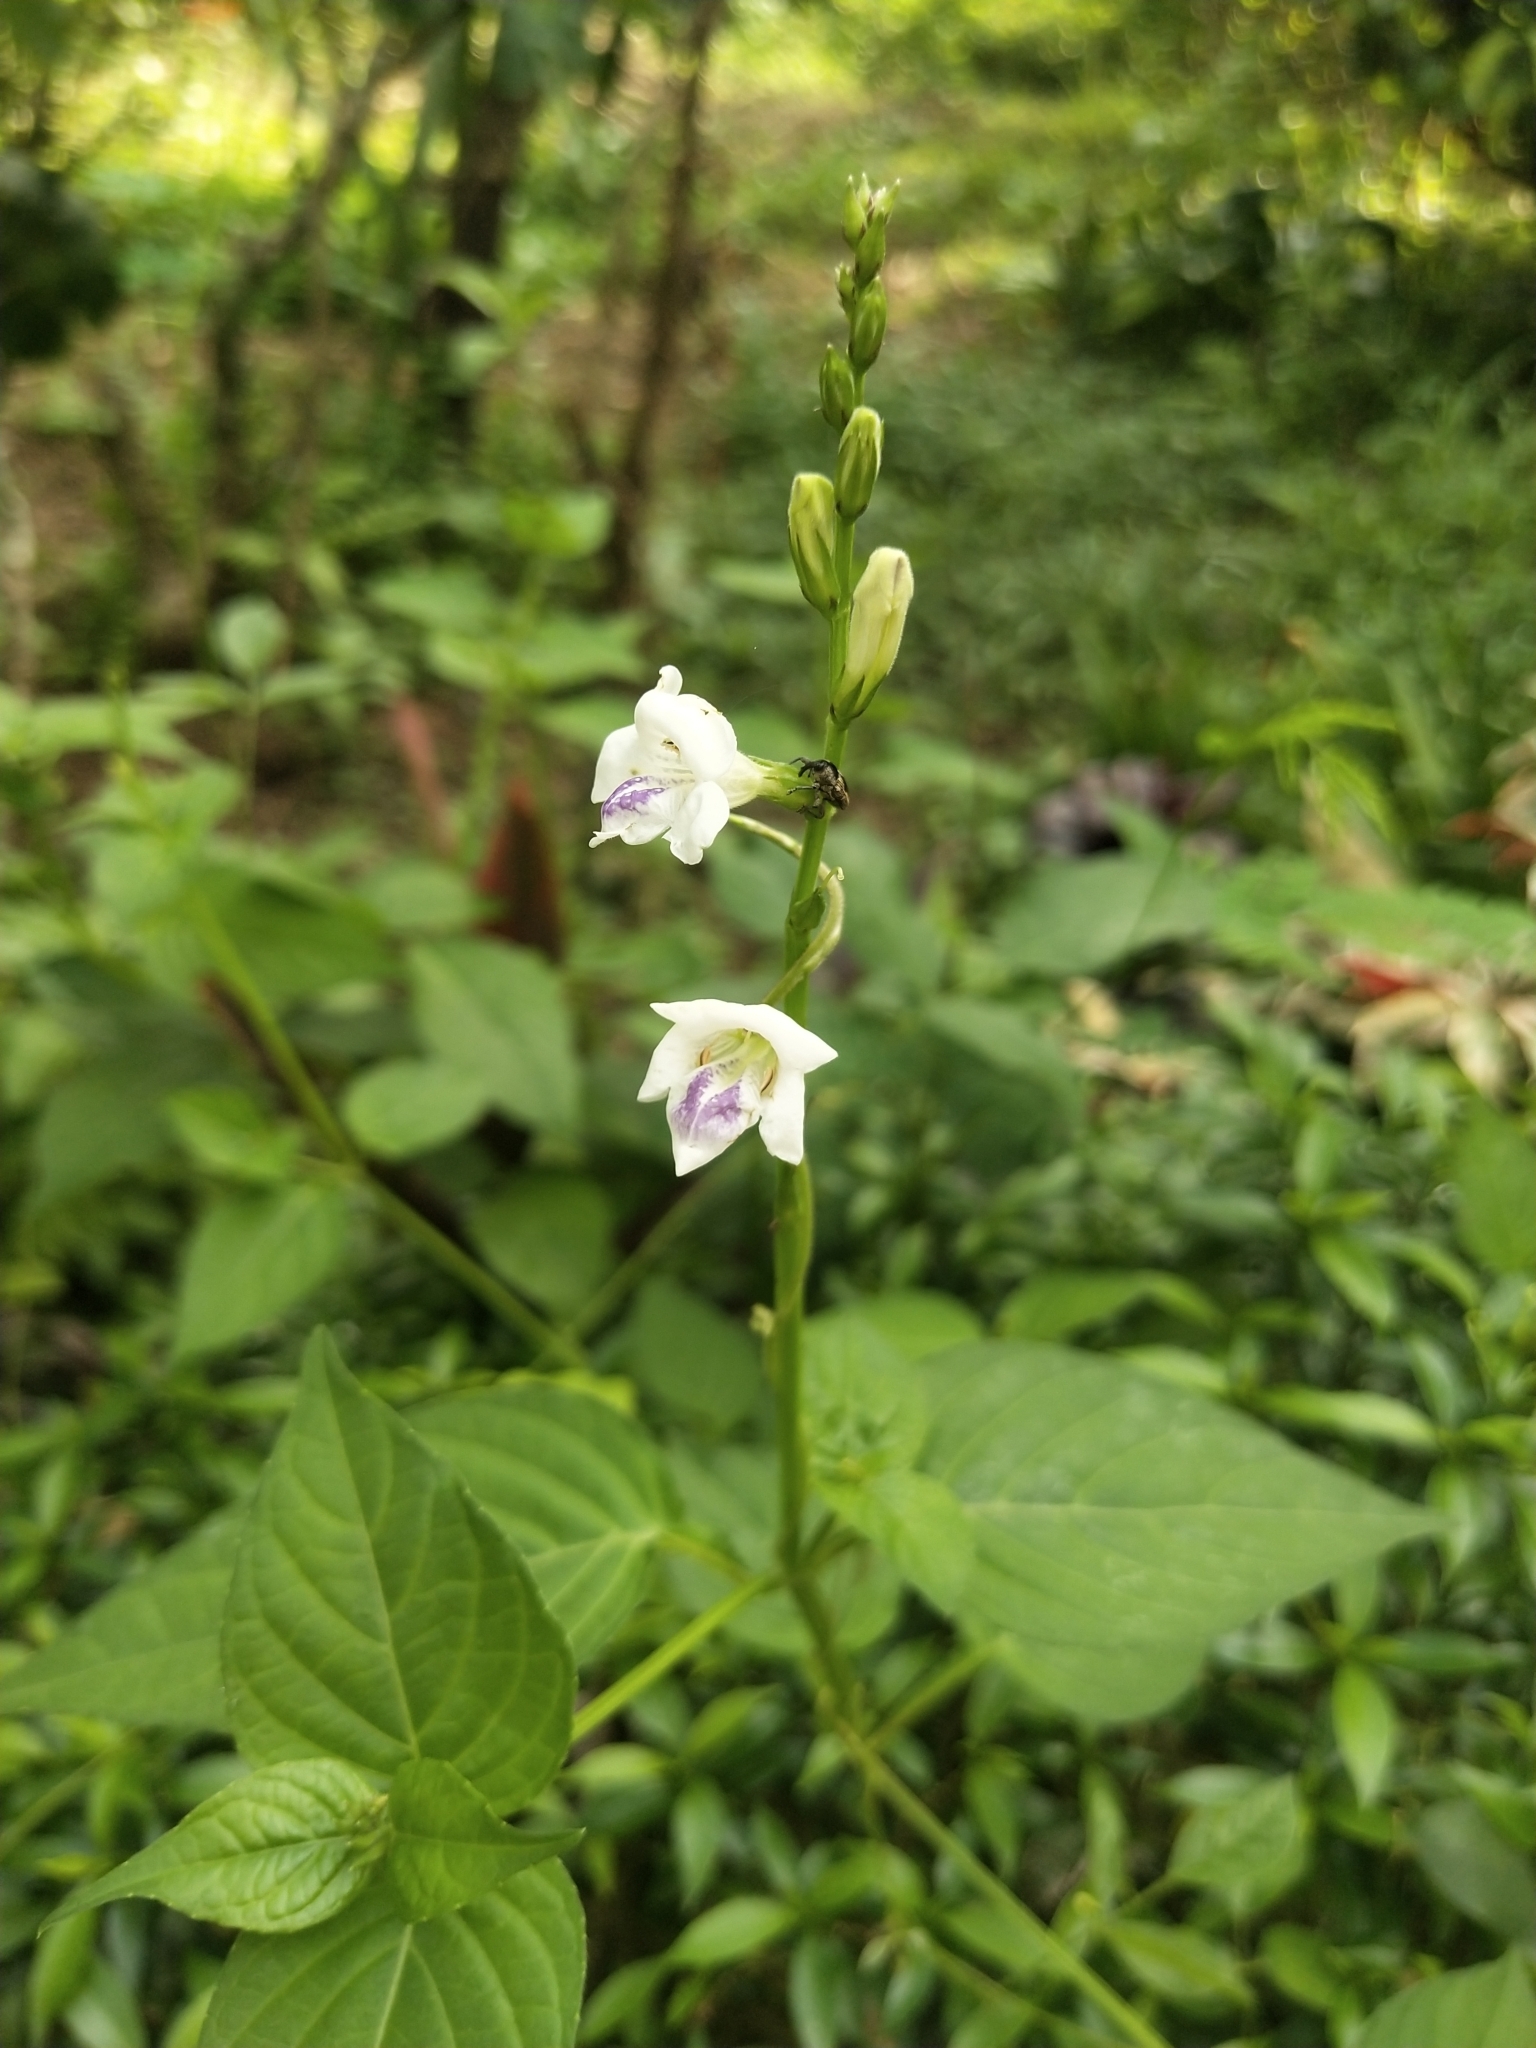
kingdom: Plantae
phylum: Tracheophyta
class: Magnoliopsida
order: Lamiales
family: Acanthaceae
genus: Asystasia
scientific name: Asystasia intrusa
